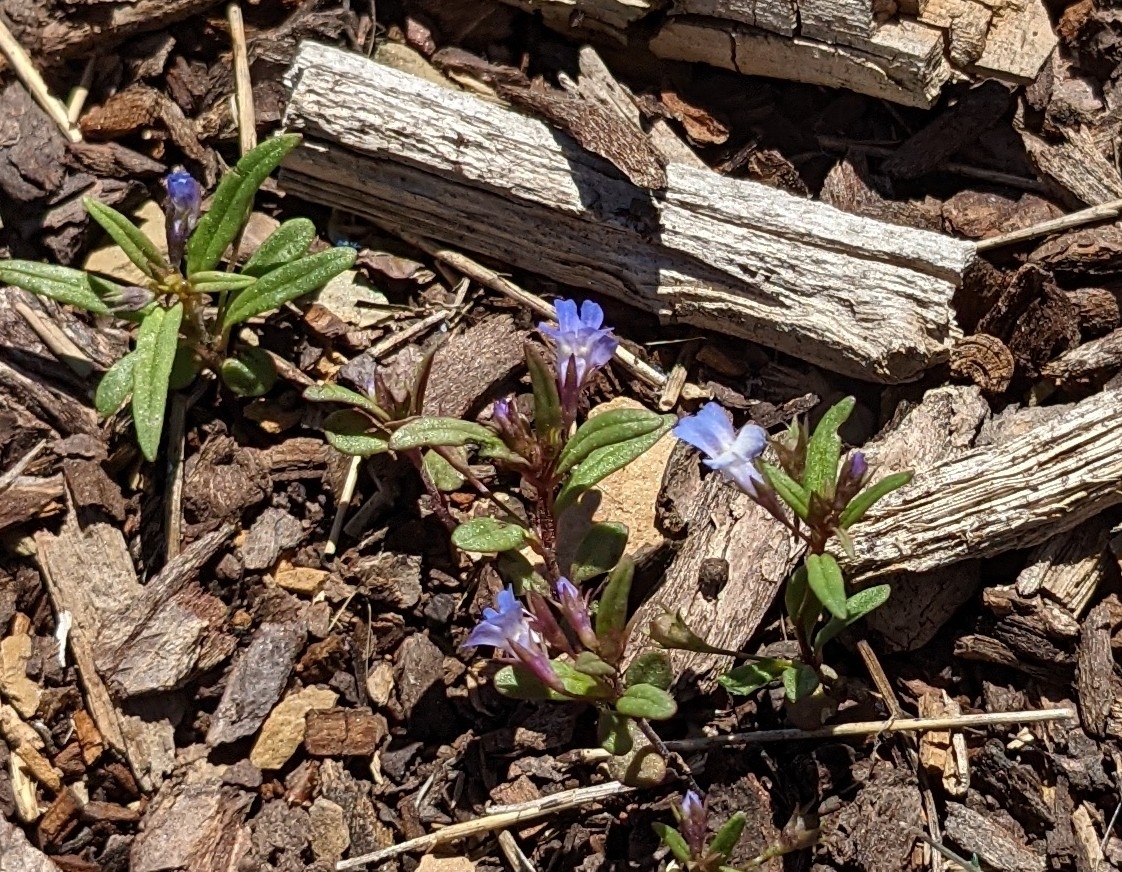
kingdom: Plantae
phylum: Tracheophyta
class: Magnoliopsida
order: Lamiales
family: Plantaginaceae
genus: Collinsia
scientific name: Collinsia parviflora
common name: Blue-lips
